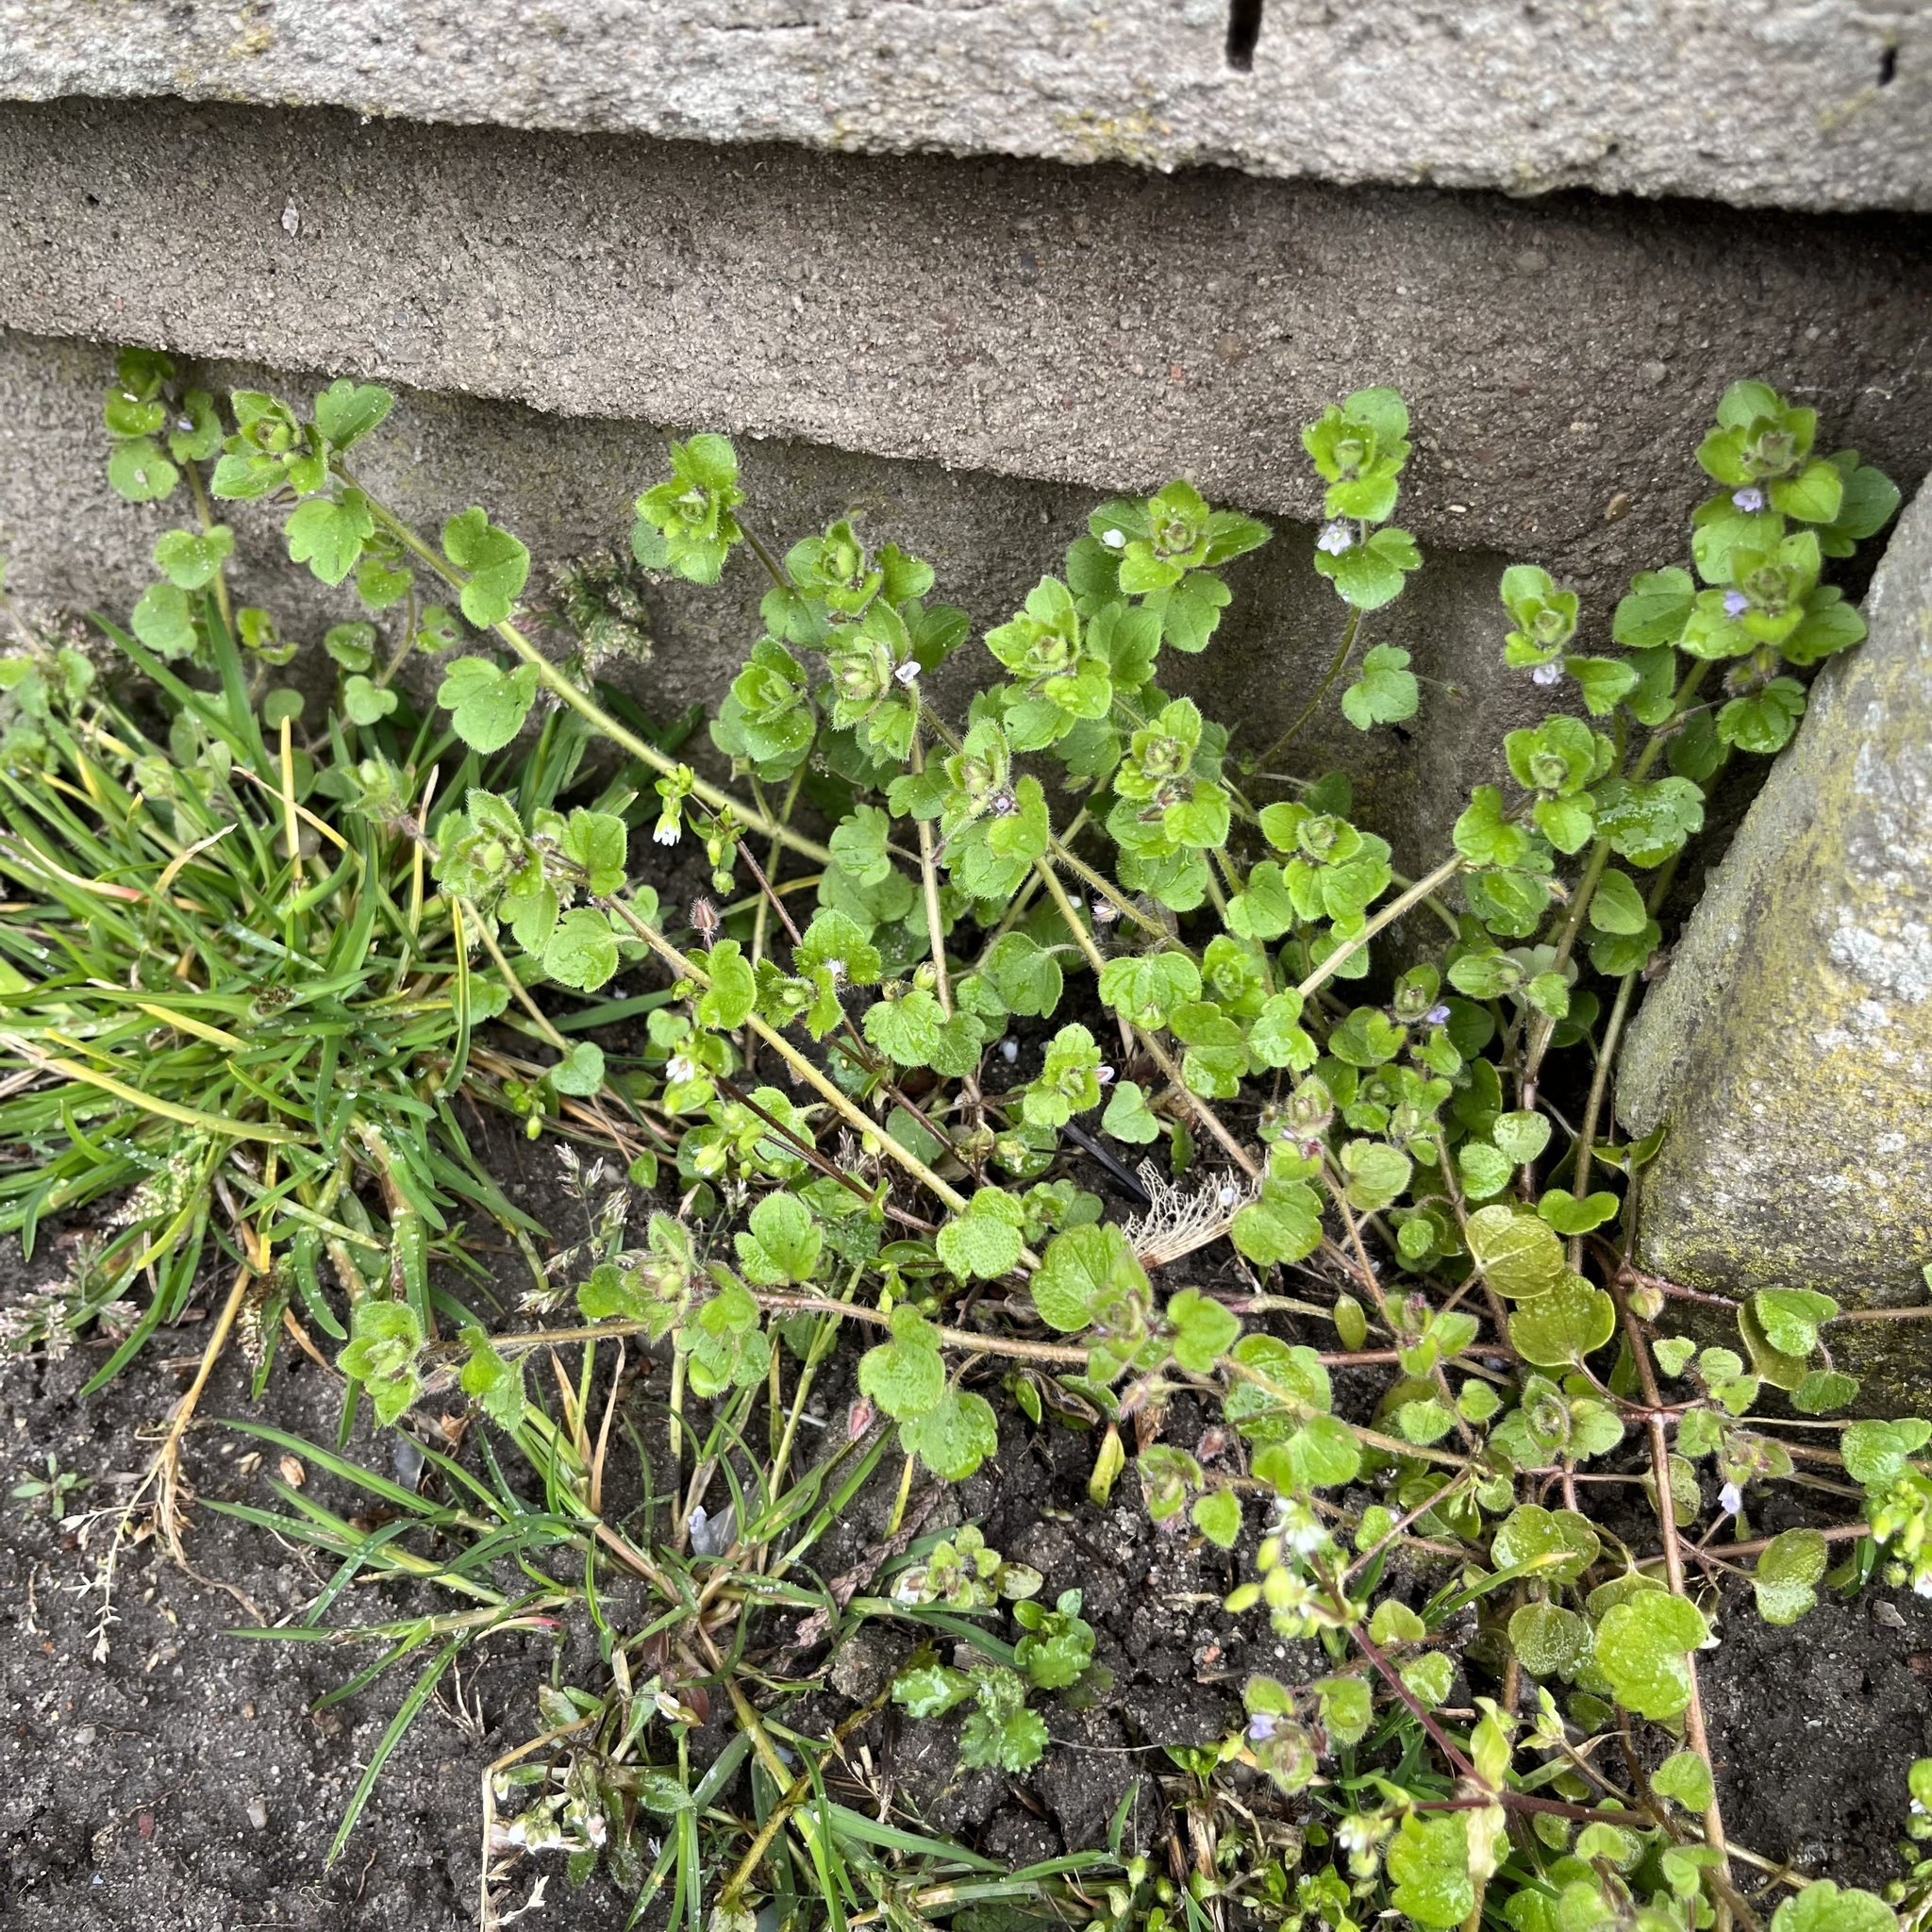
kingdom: Plantae
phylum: Tracheophyta
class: Magnoliopsida
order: Lamiales
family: Plantaginaceae
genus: Veronica
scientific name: Veronica sublobata
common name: False ivy-leaved speedwell
